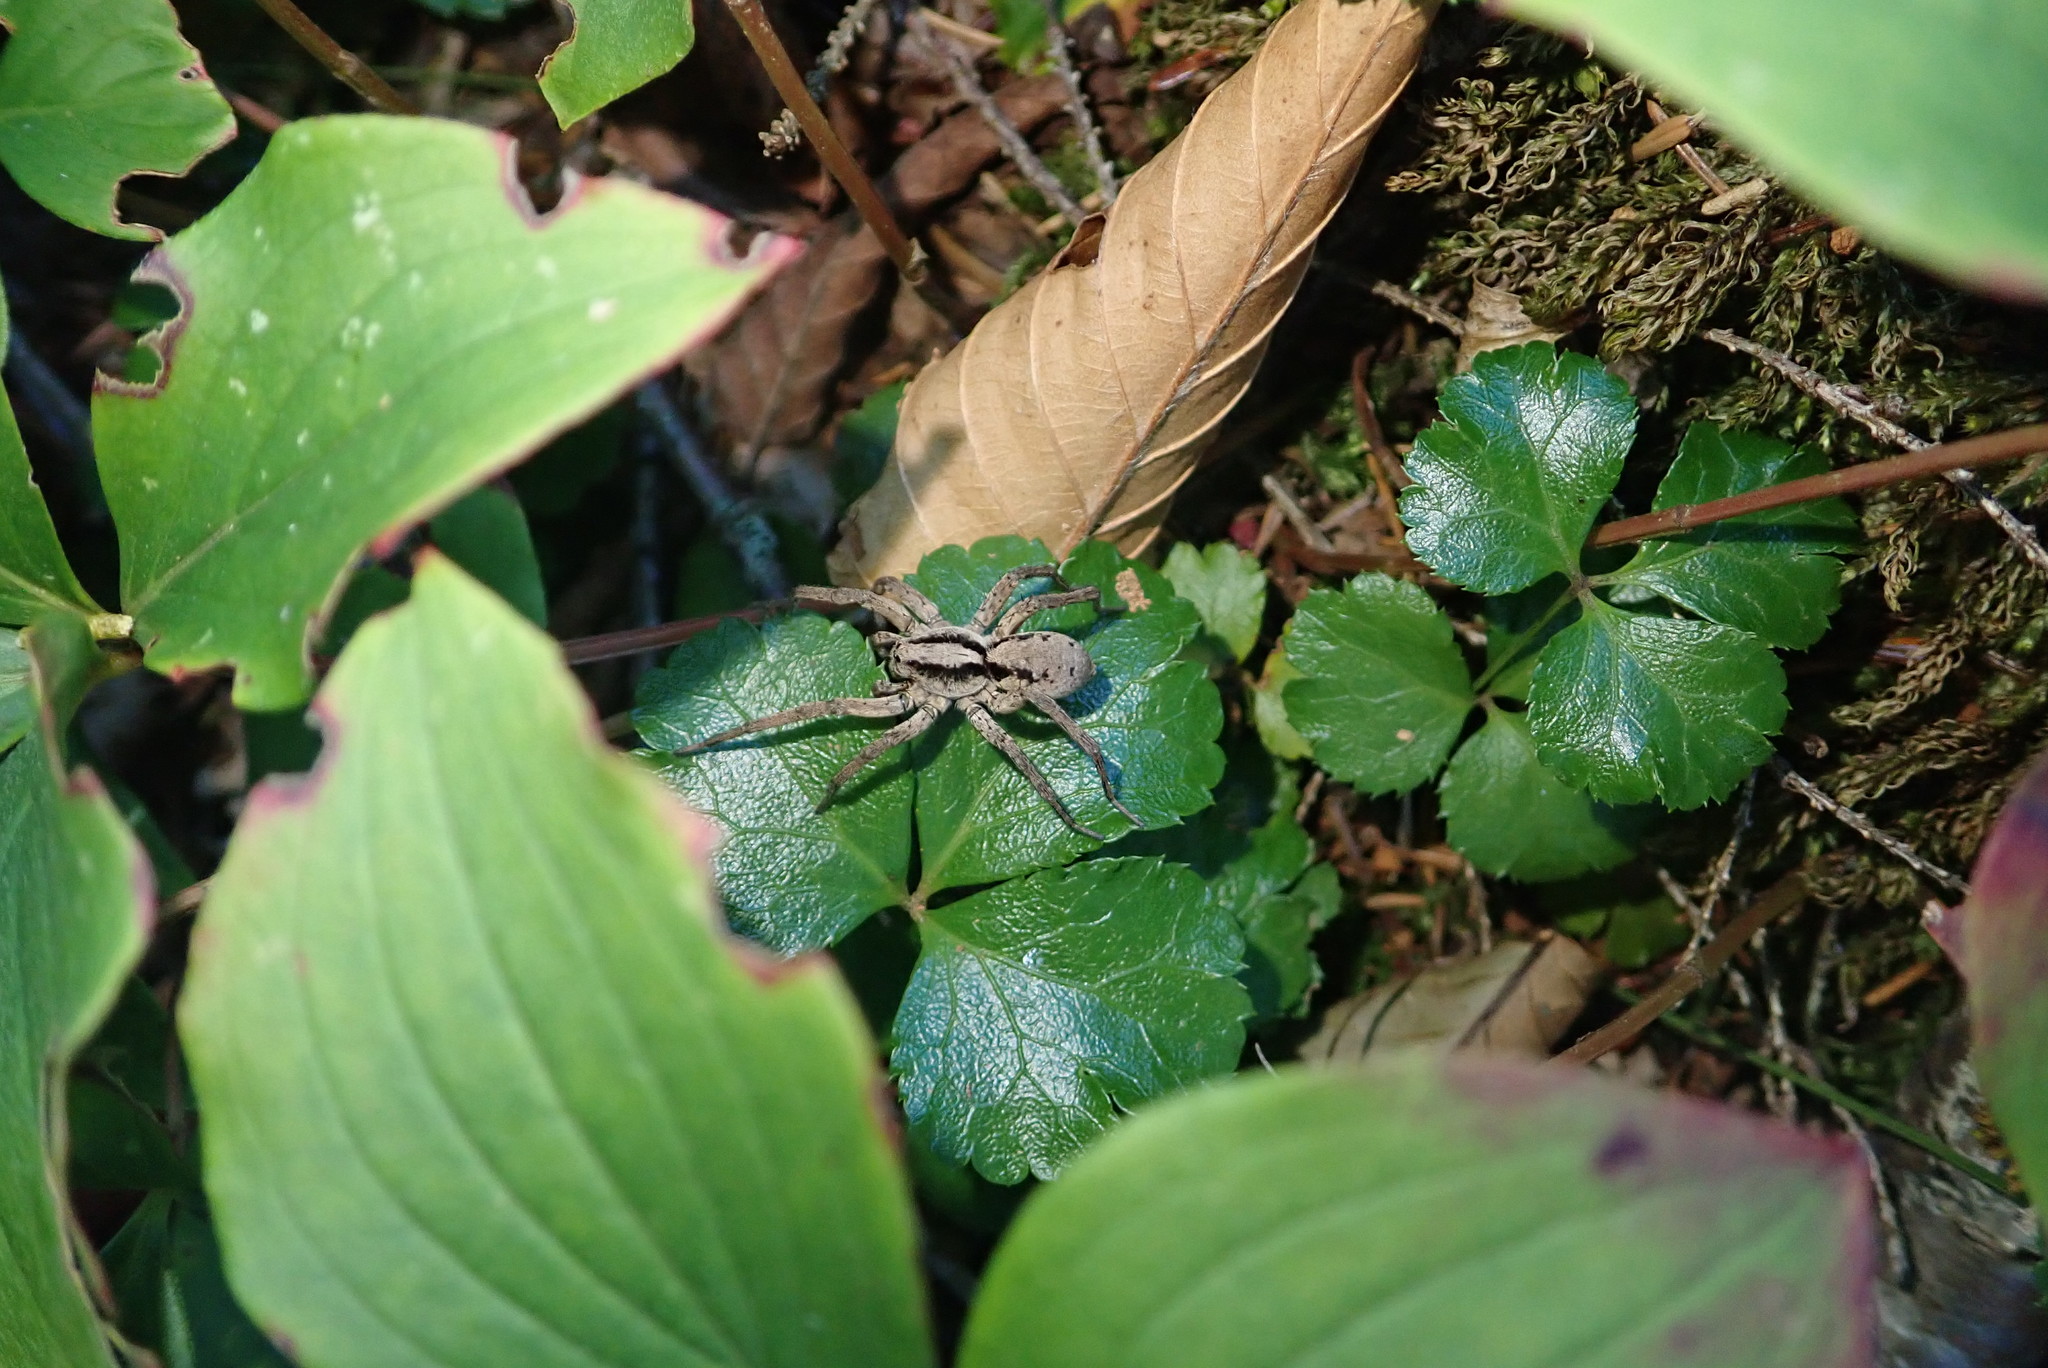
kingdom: Animalia
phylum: Arthropoda
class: Arachnida
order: Araneae
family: Lycosidae
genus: Gladicosa
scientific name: Gladicosa gulosa
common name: Drumming sword wolf spider
